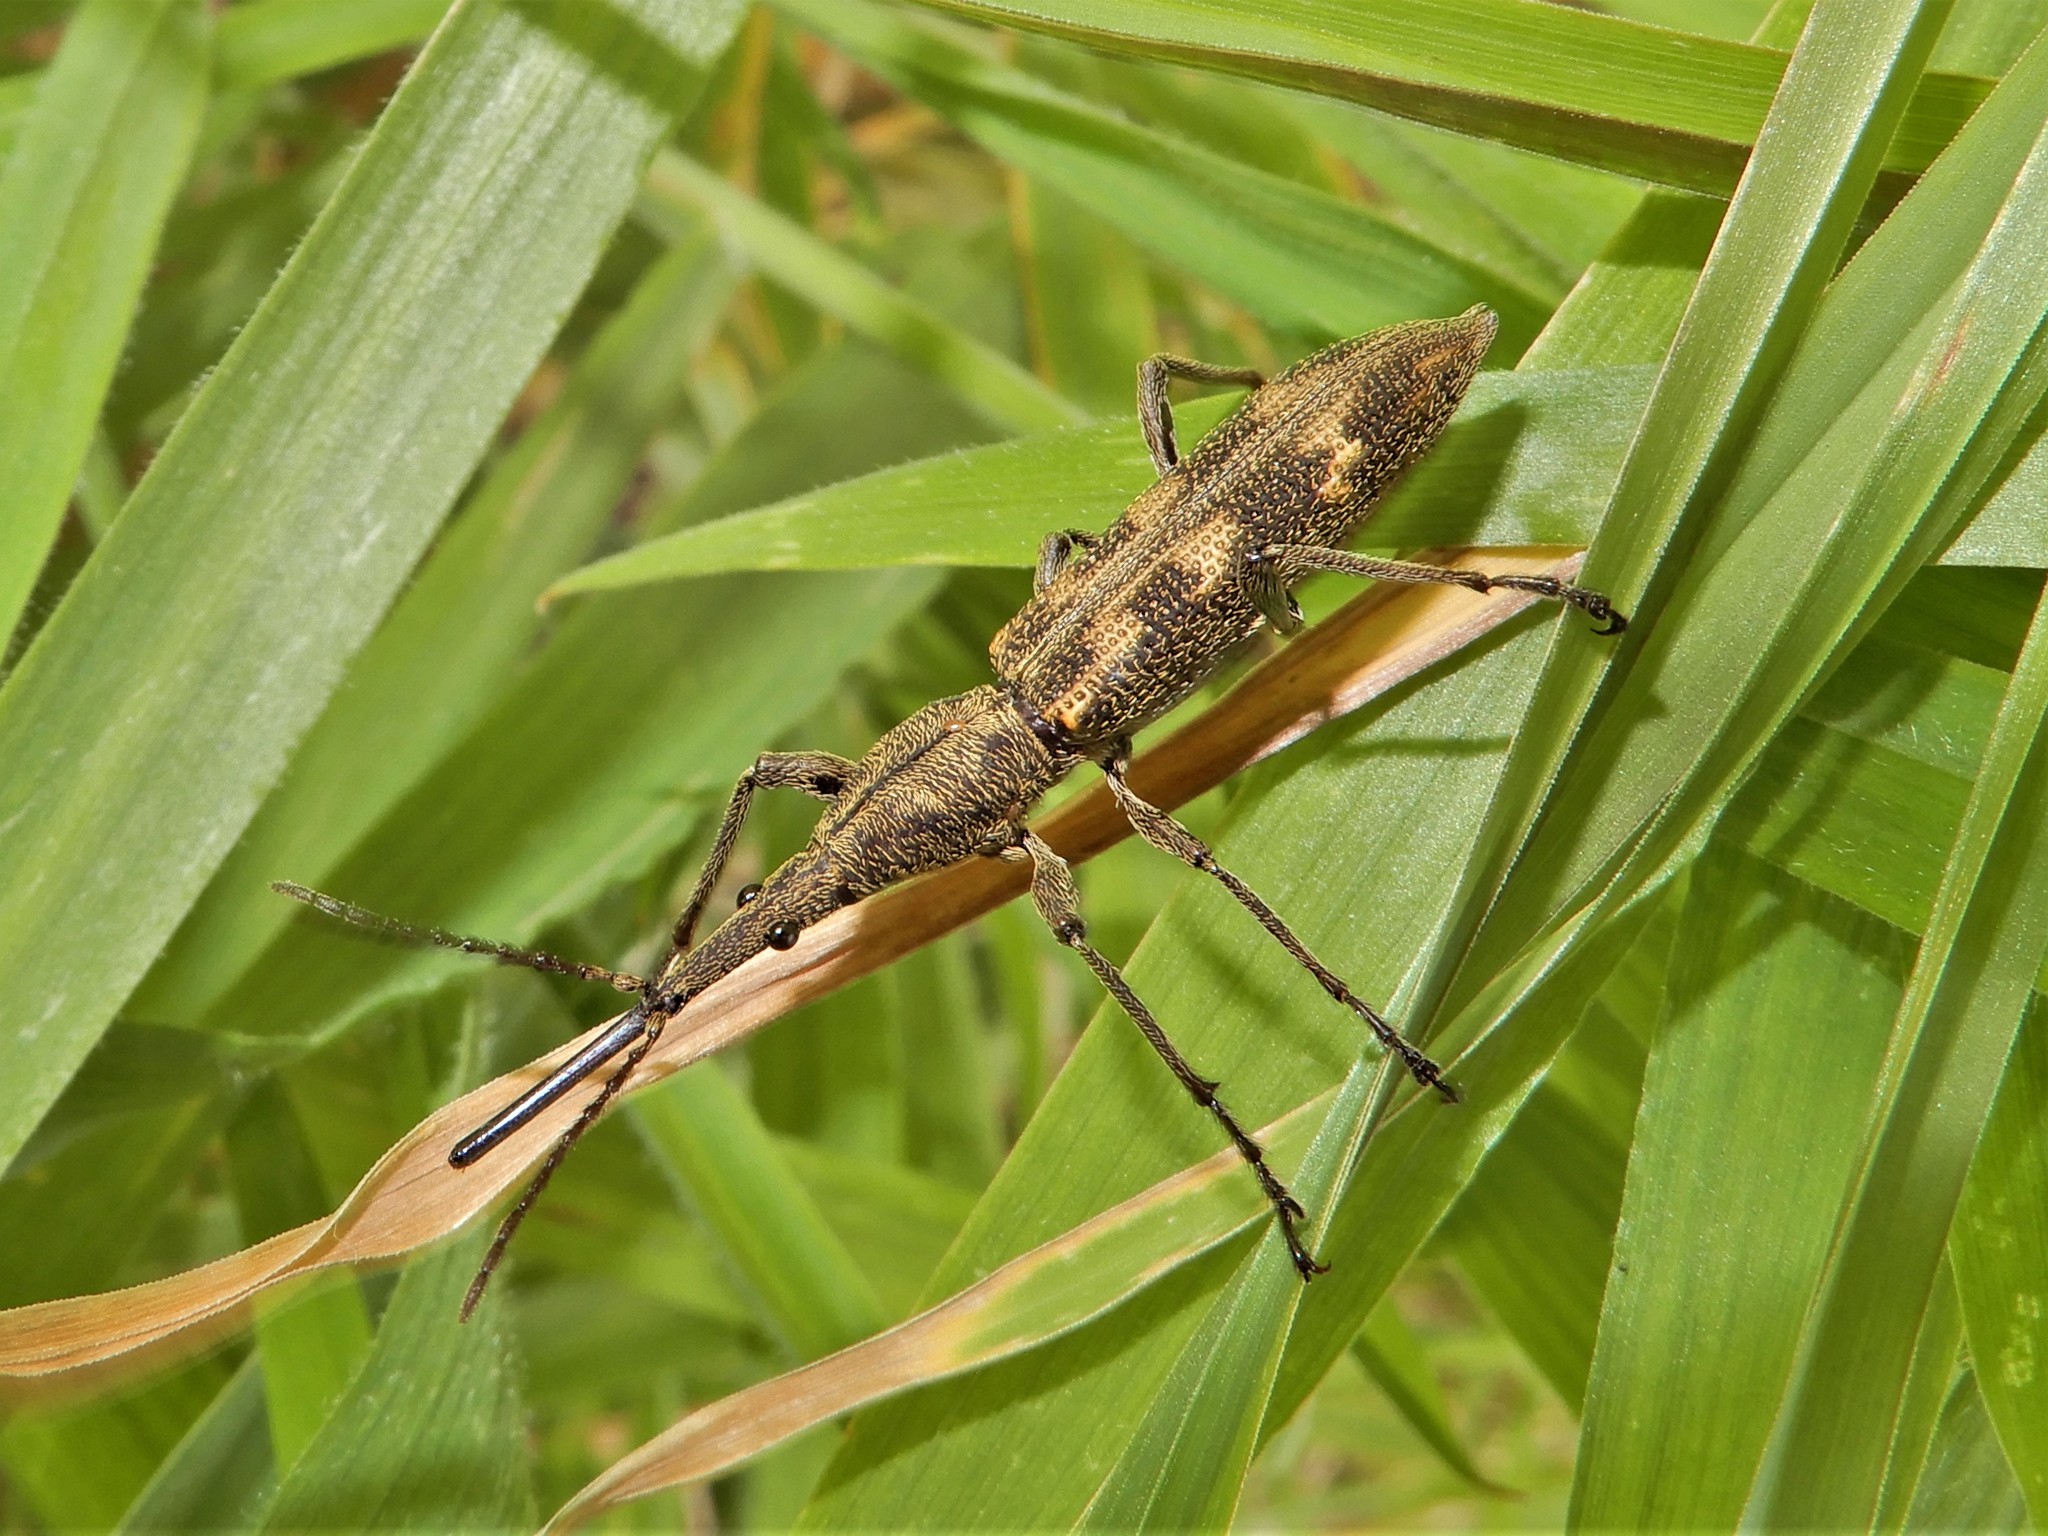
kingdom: Animalia
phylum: Arthropoda
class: Insecta
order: Coleoptera
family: Brentidae
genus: Lasiorhynchus
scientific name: Lasiorhynchus barbicornis
